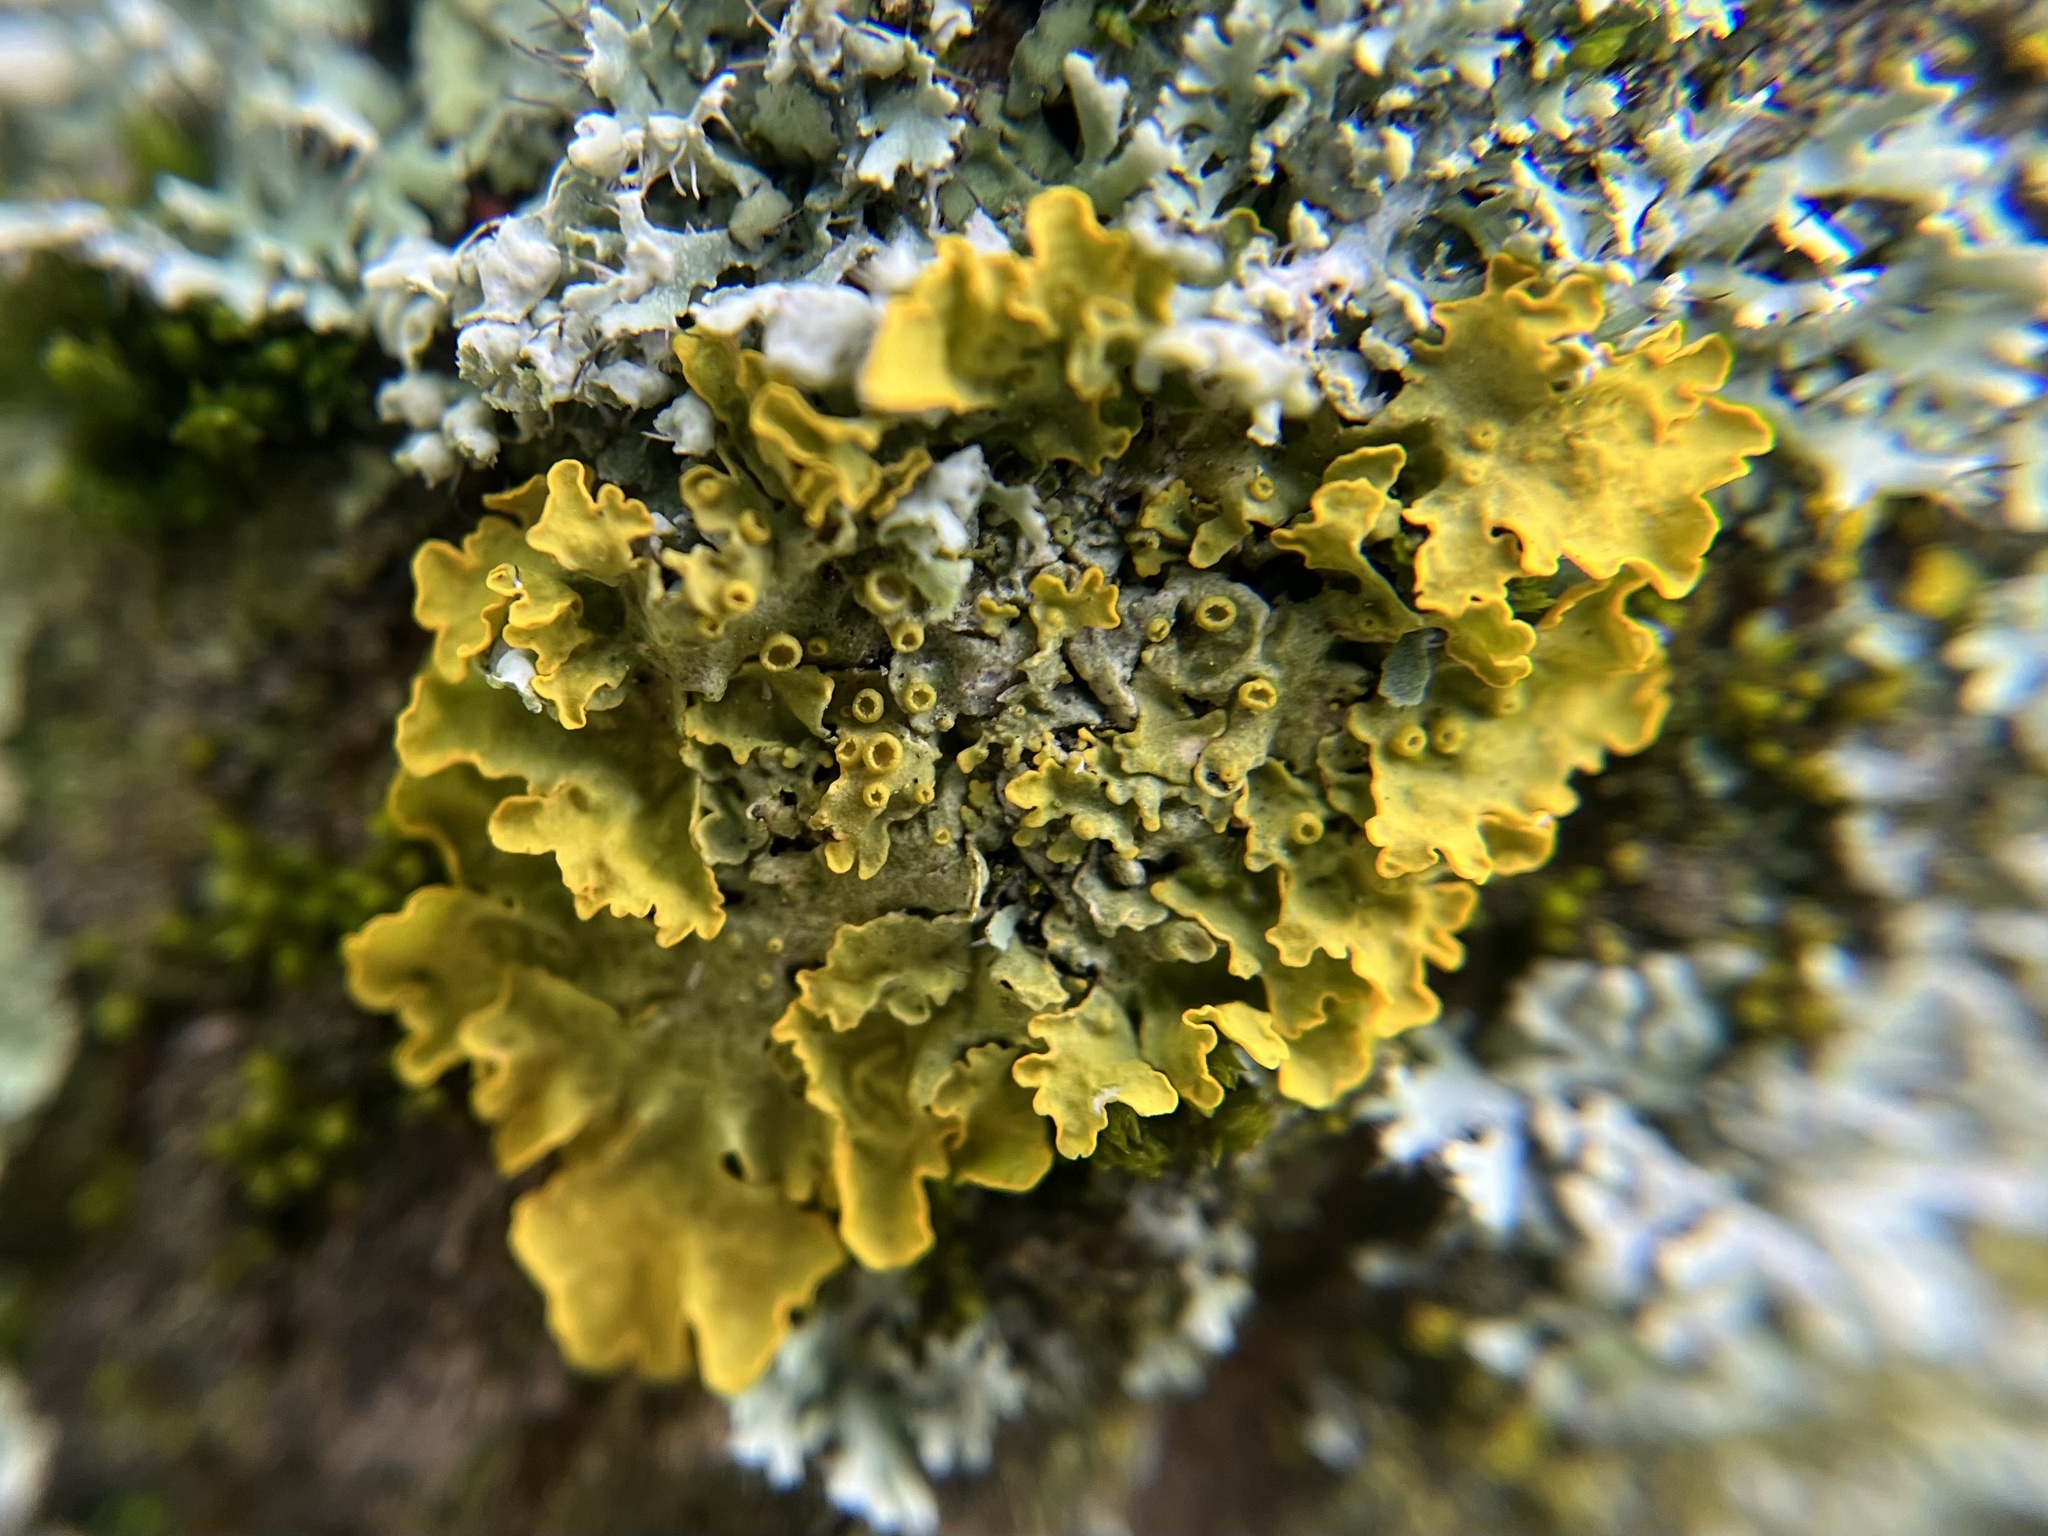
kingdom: Fungi
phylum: Ascomycota
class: Lecanoromycetes
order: Teloschistales
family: Teloschistaceae
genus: Xanthoria
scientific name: Xanthoria parietina
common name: Common orange lichen
